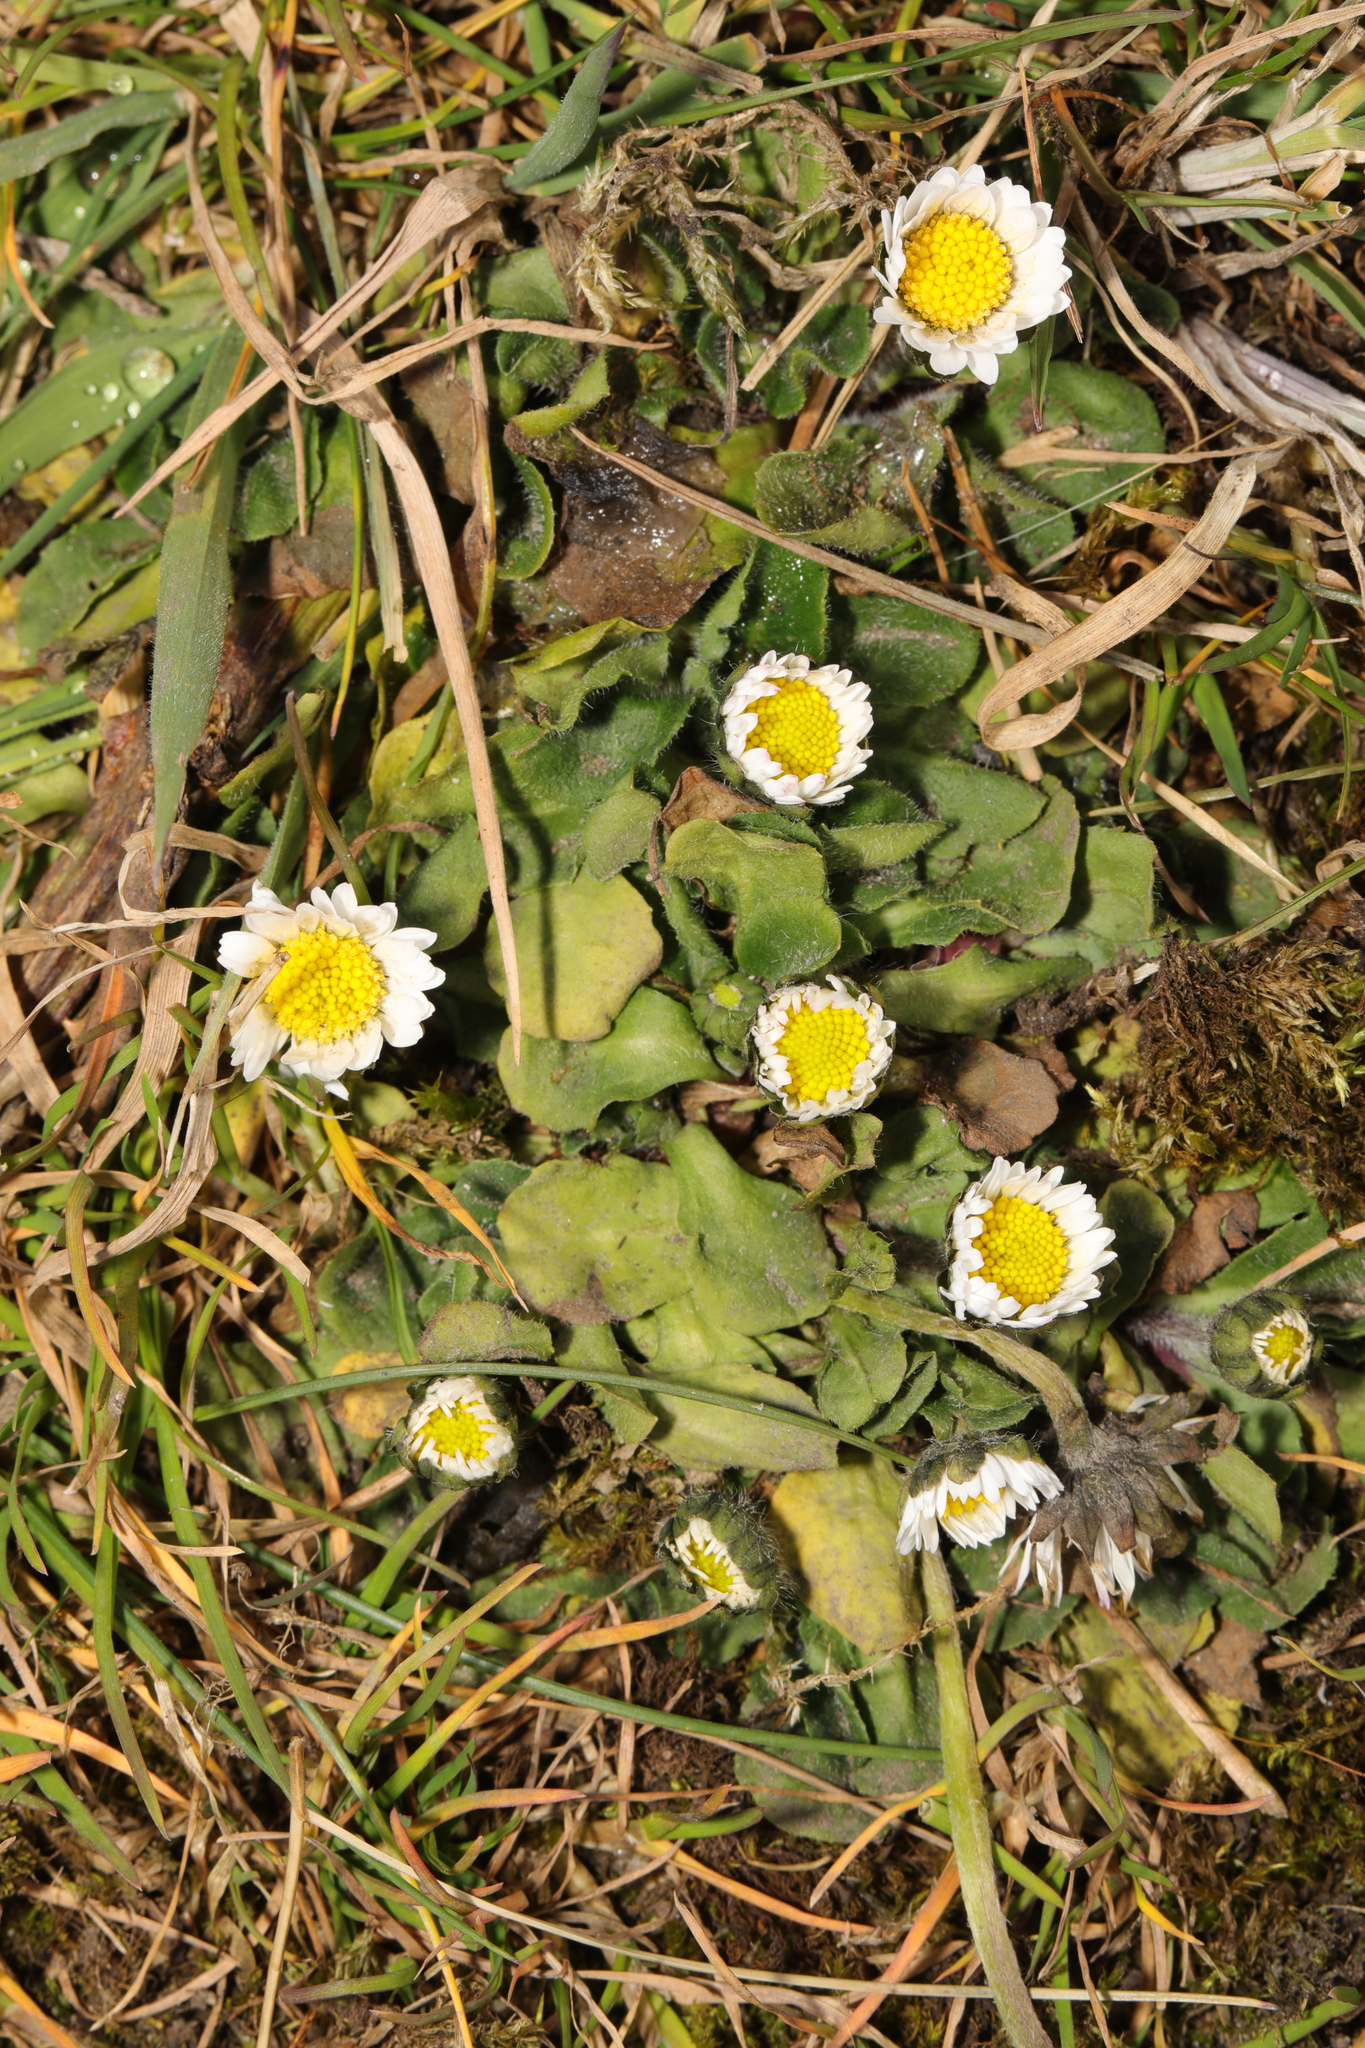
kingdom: Plantae
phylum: Tracheophyta
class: Magnoliopsida
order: Asterales
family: Asteraceae
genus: Bellis
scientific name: Bellis perennis
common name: Lawndaisy
